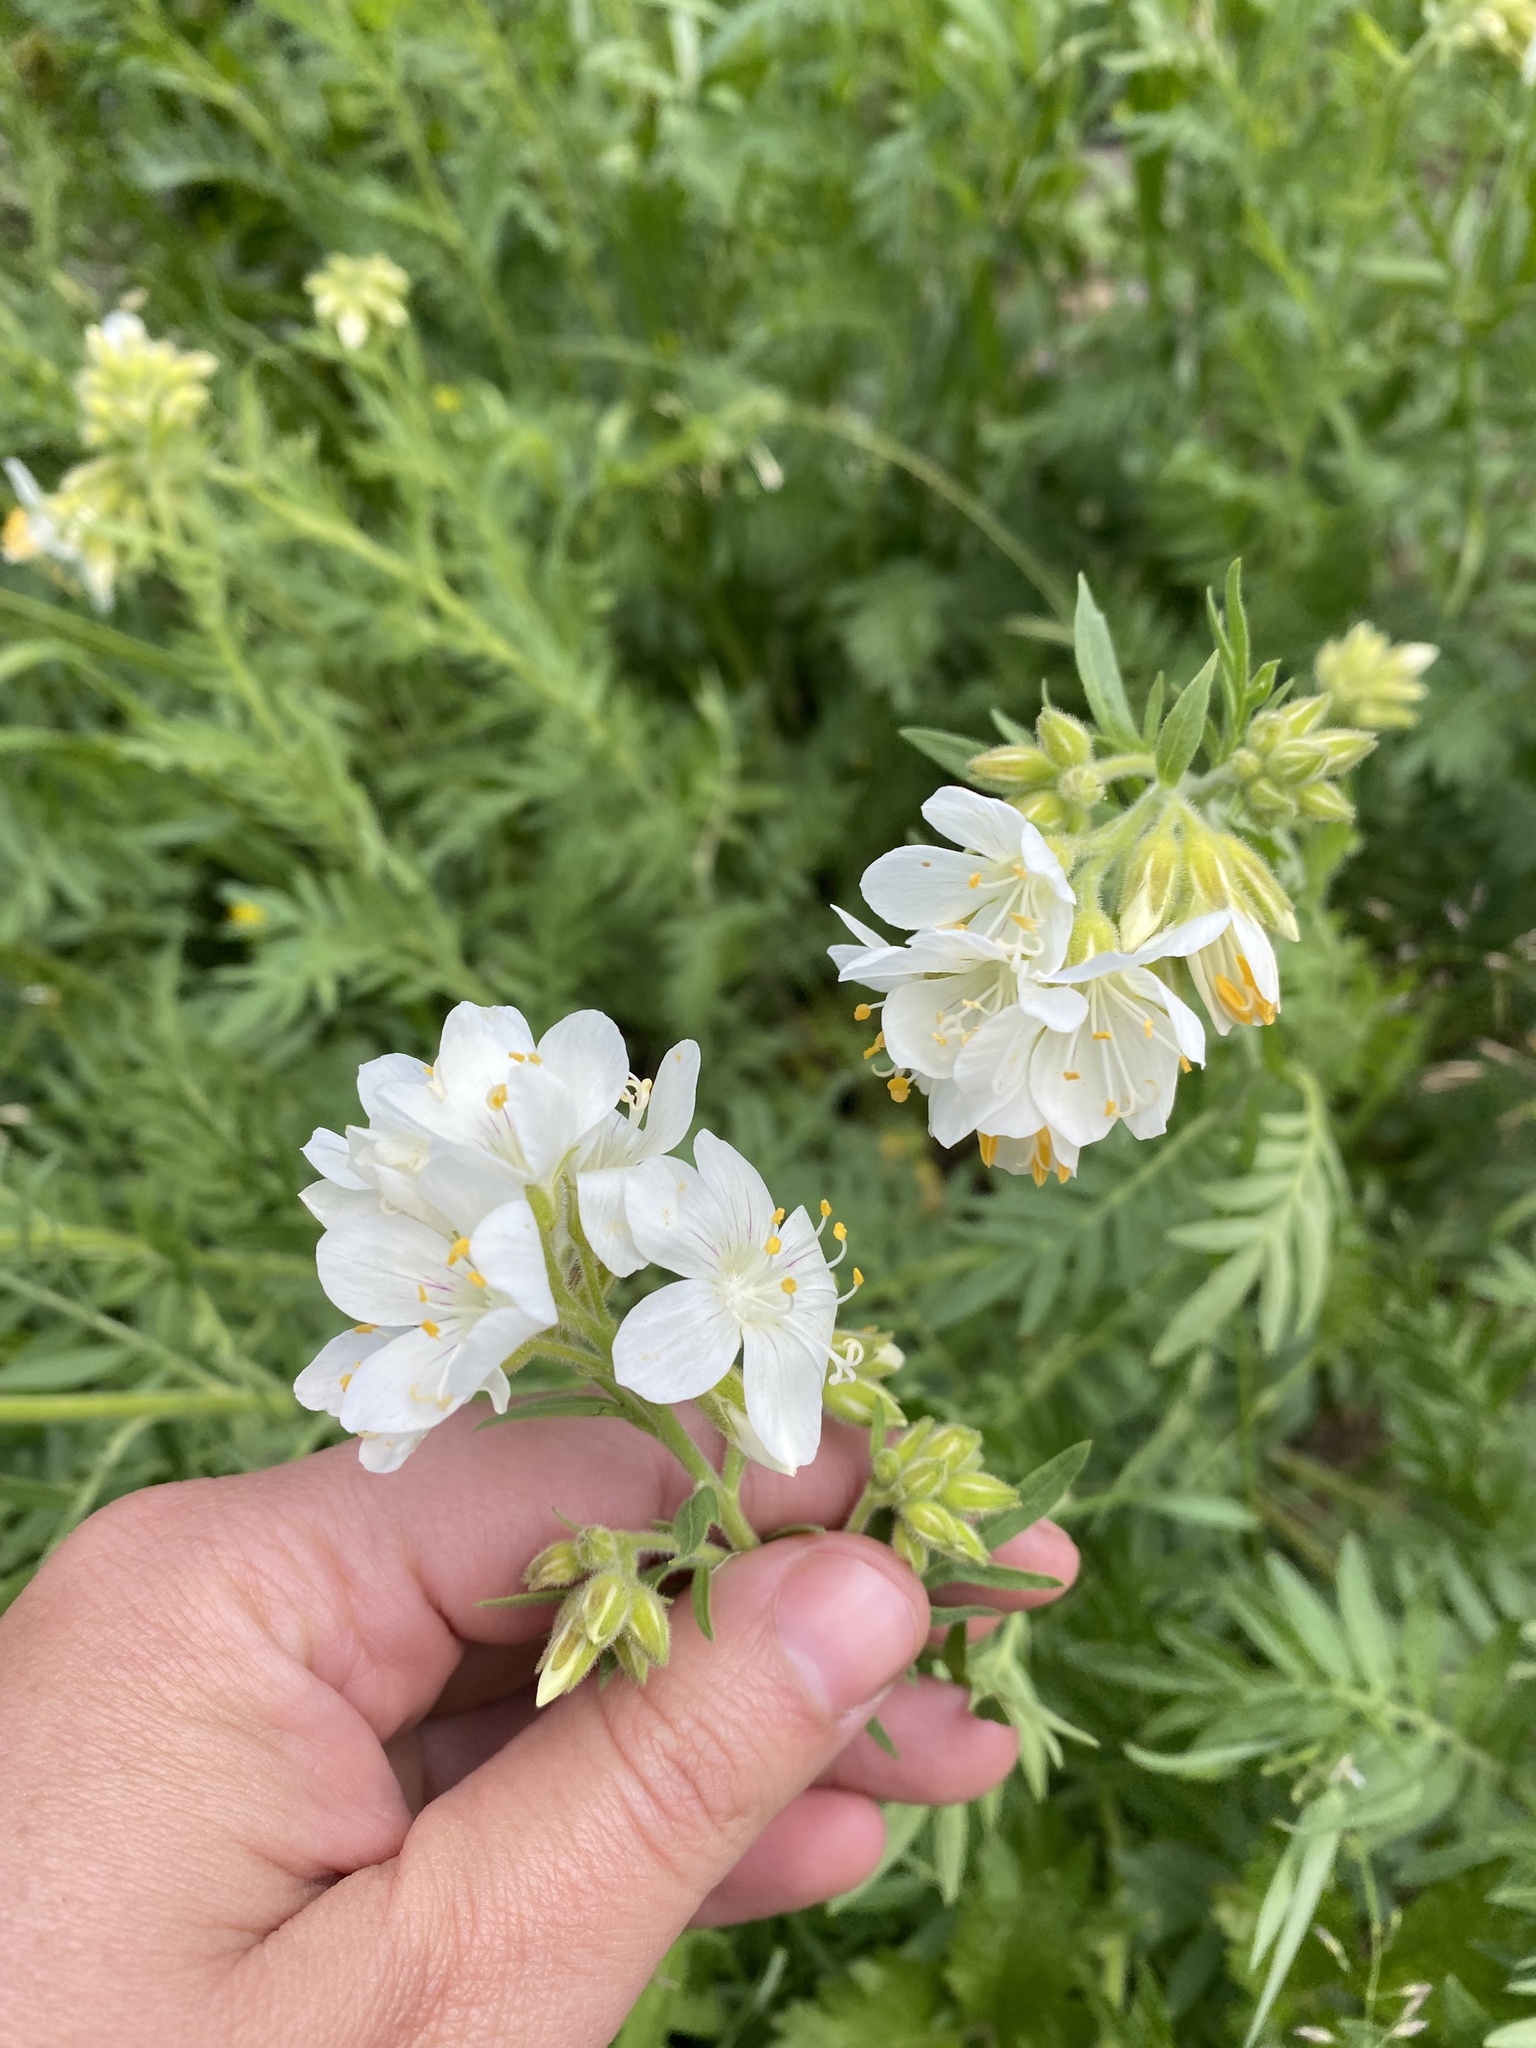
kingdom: Plantae
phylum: Tracheophyta
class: Magnoliopsida
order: Ericales
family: Polemoniaceae
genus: Polemonium
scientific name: Polemonium foliosissimum
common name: Leafy jacob's-ladder
